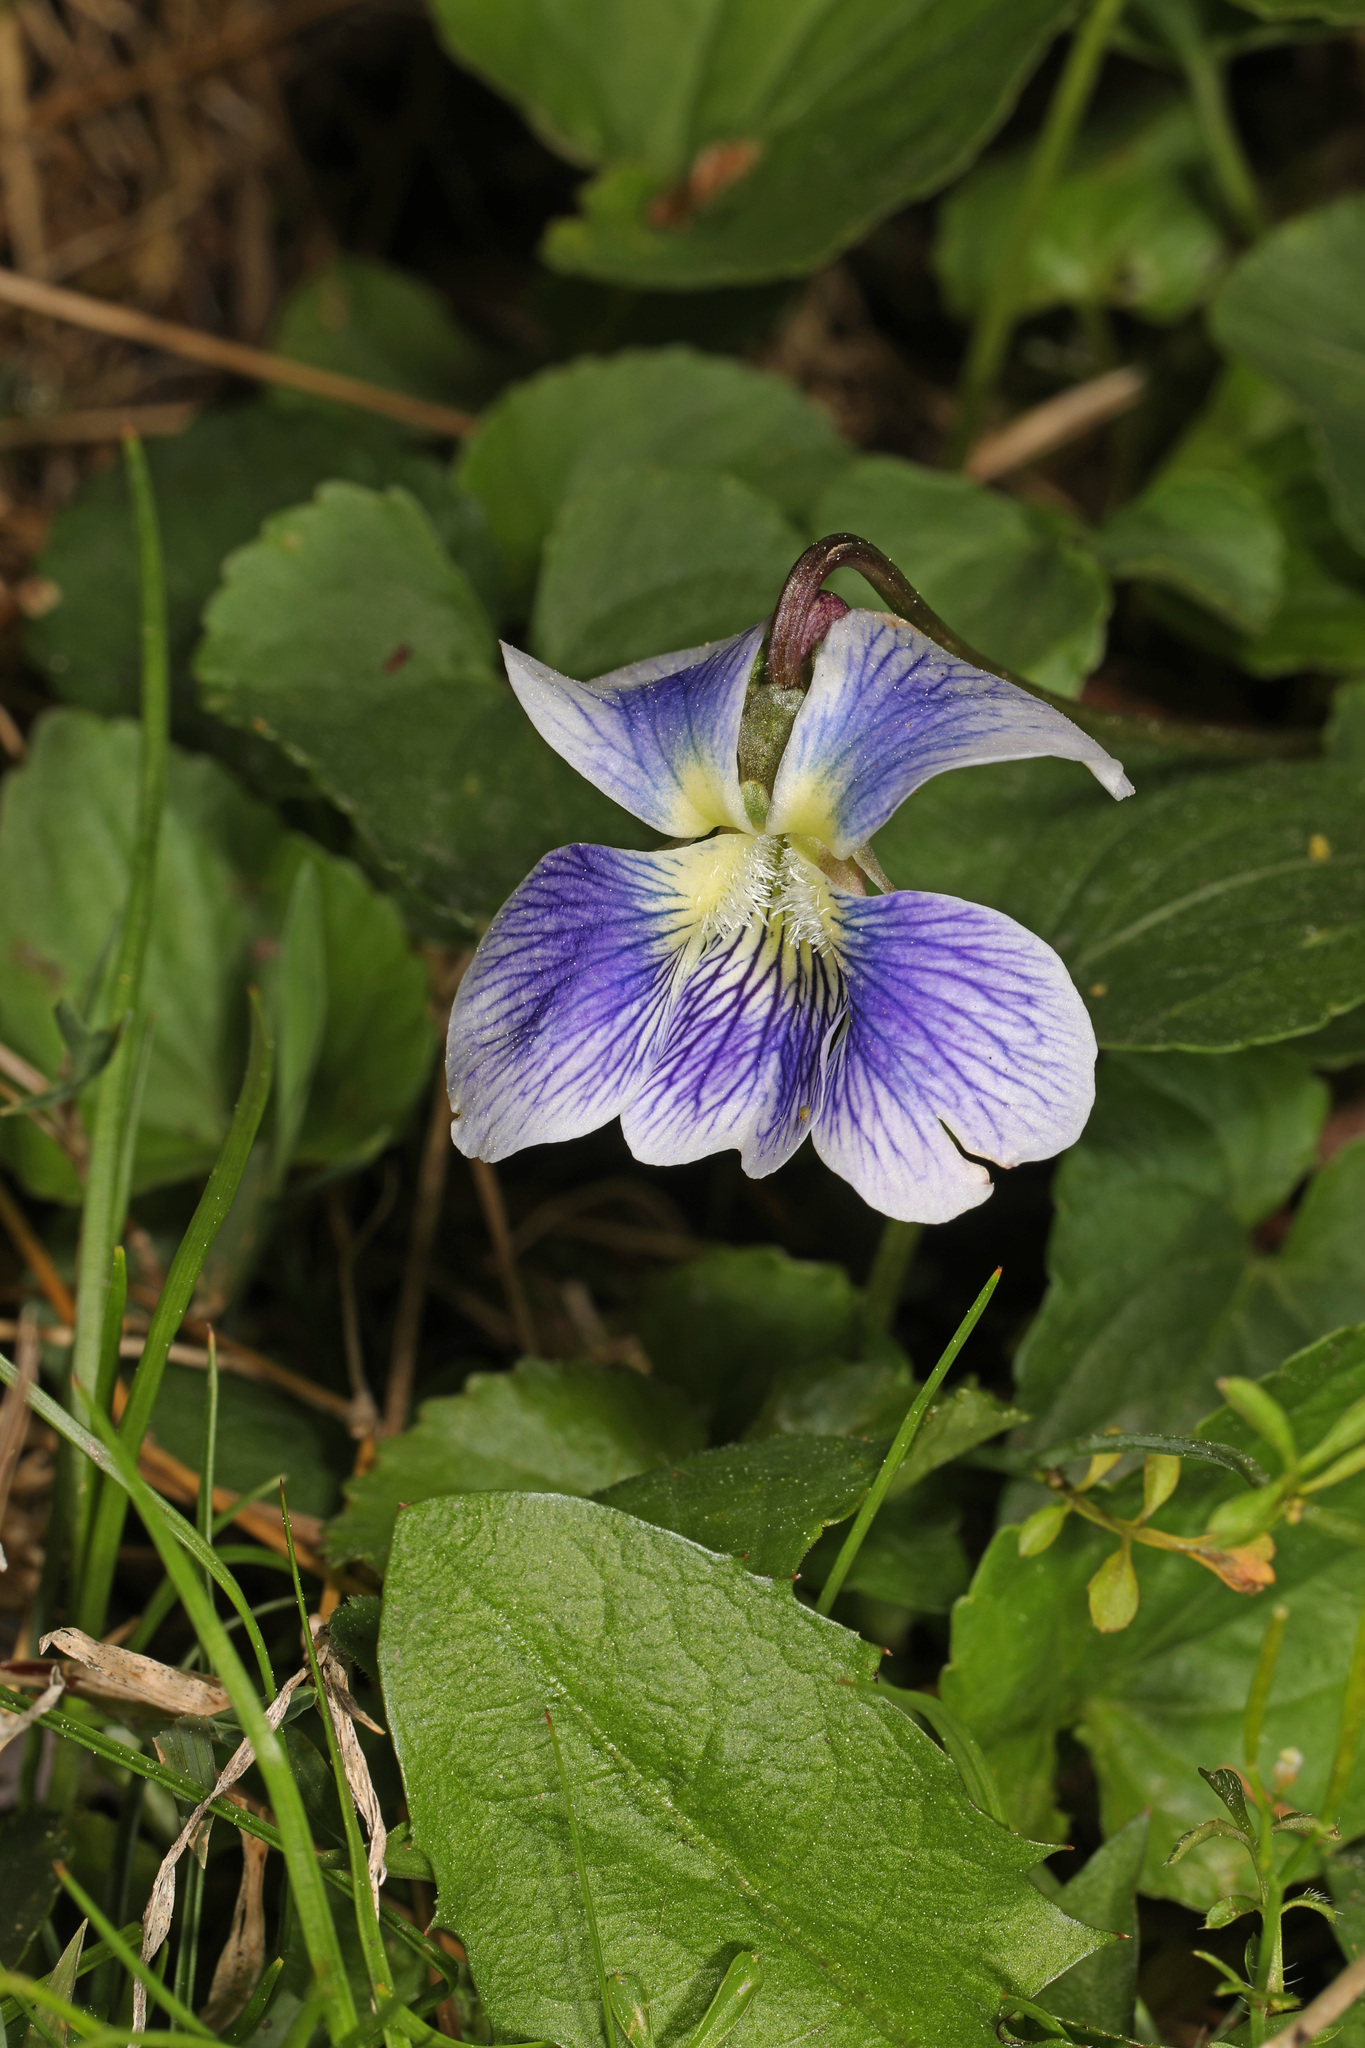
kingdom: Plantae
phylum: Tracheophyta
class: Magnoliopsida
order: Malpighiales
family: Violaceae
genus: Viola
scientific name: Viola sororia
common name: Dooryard violet
